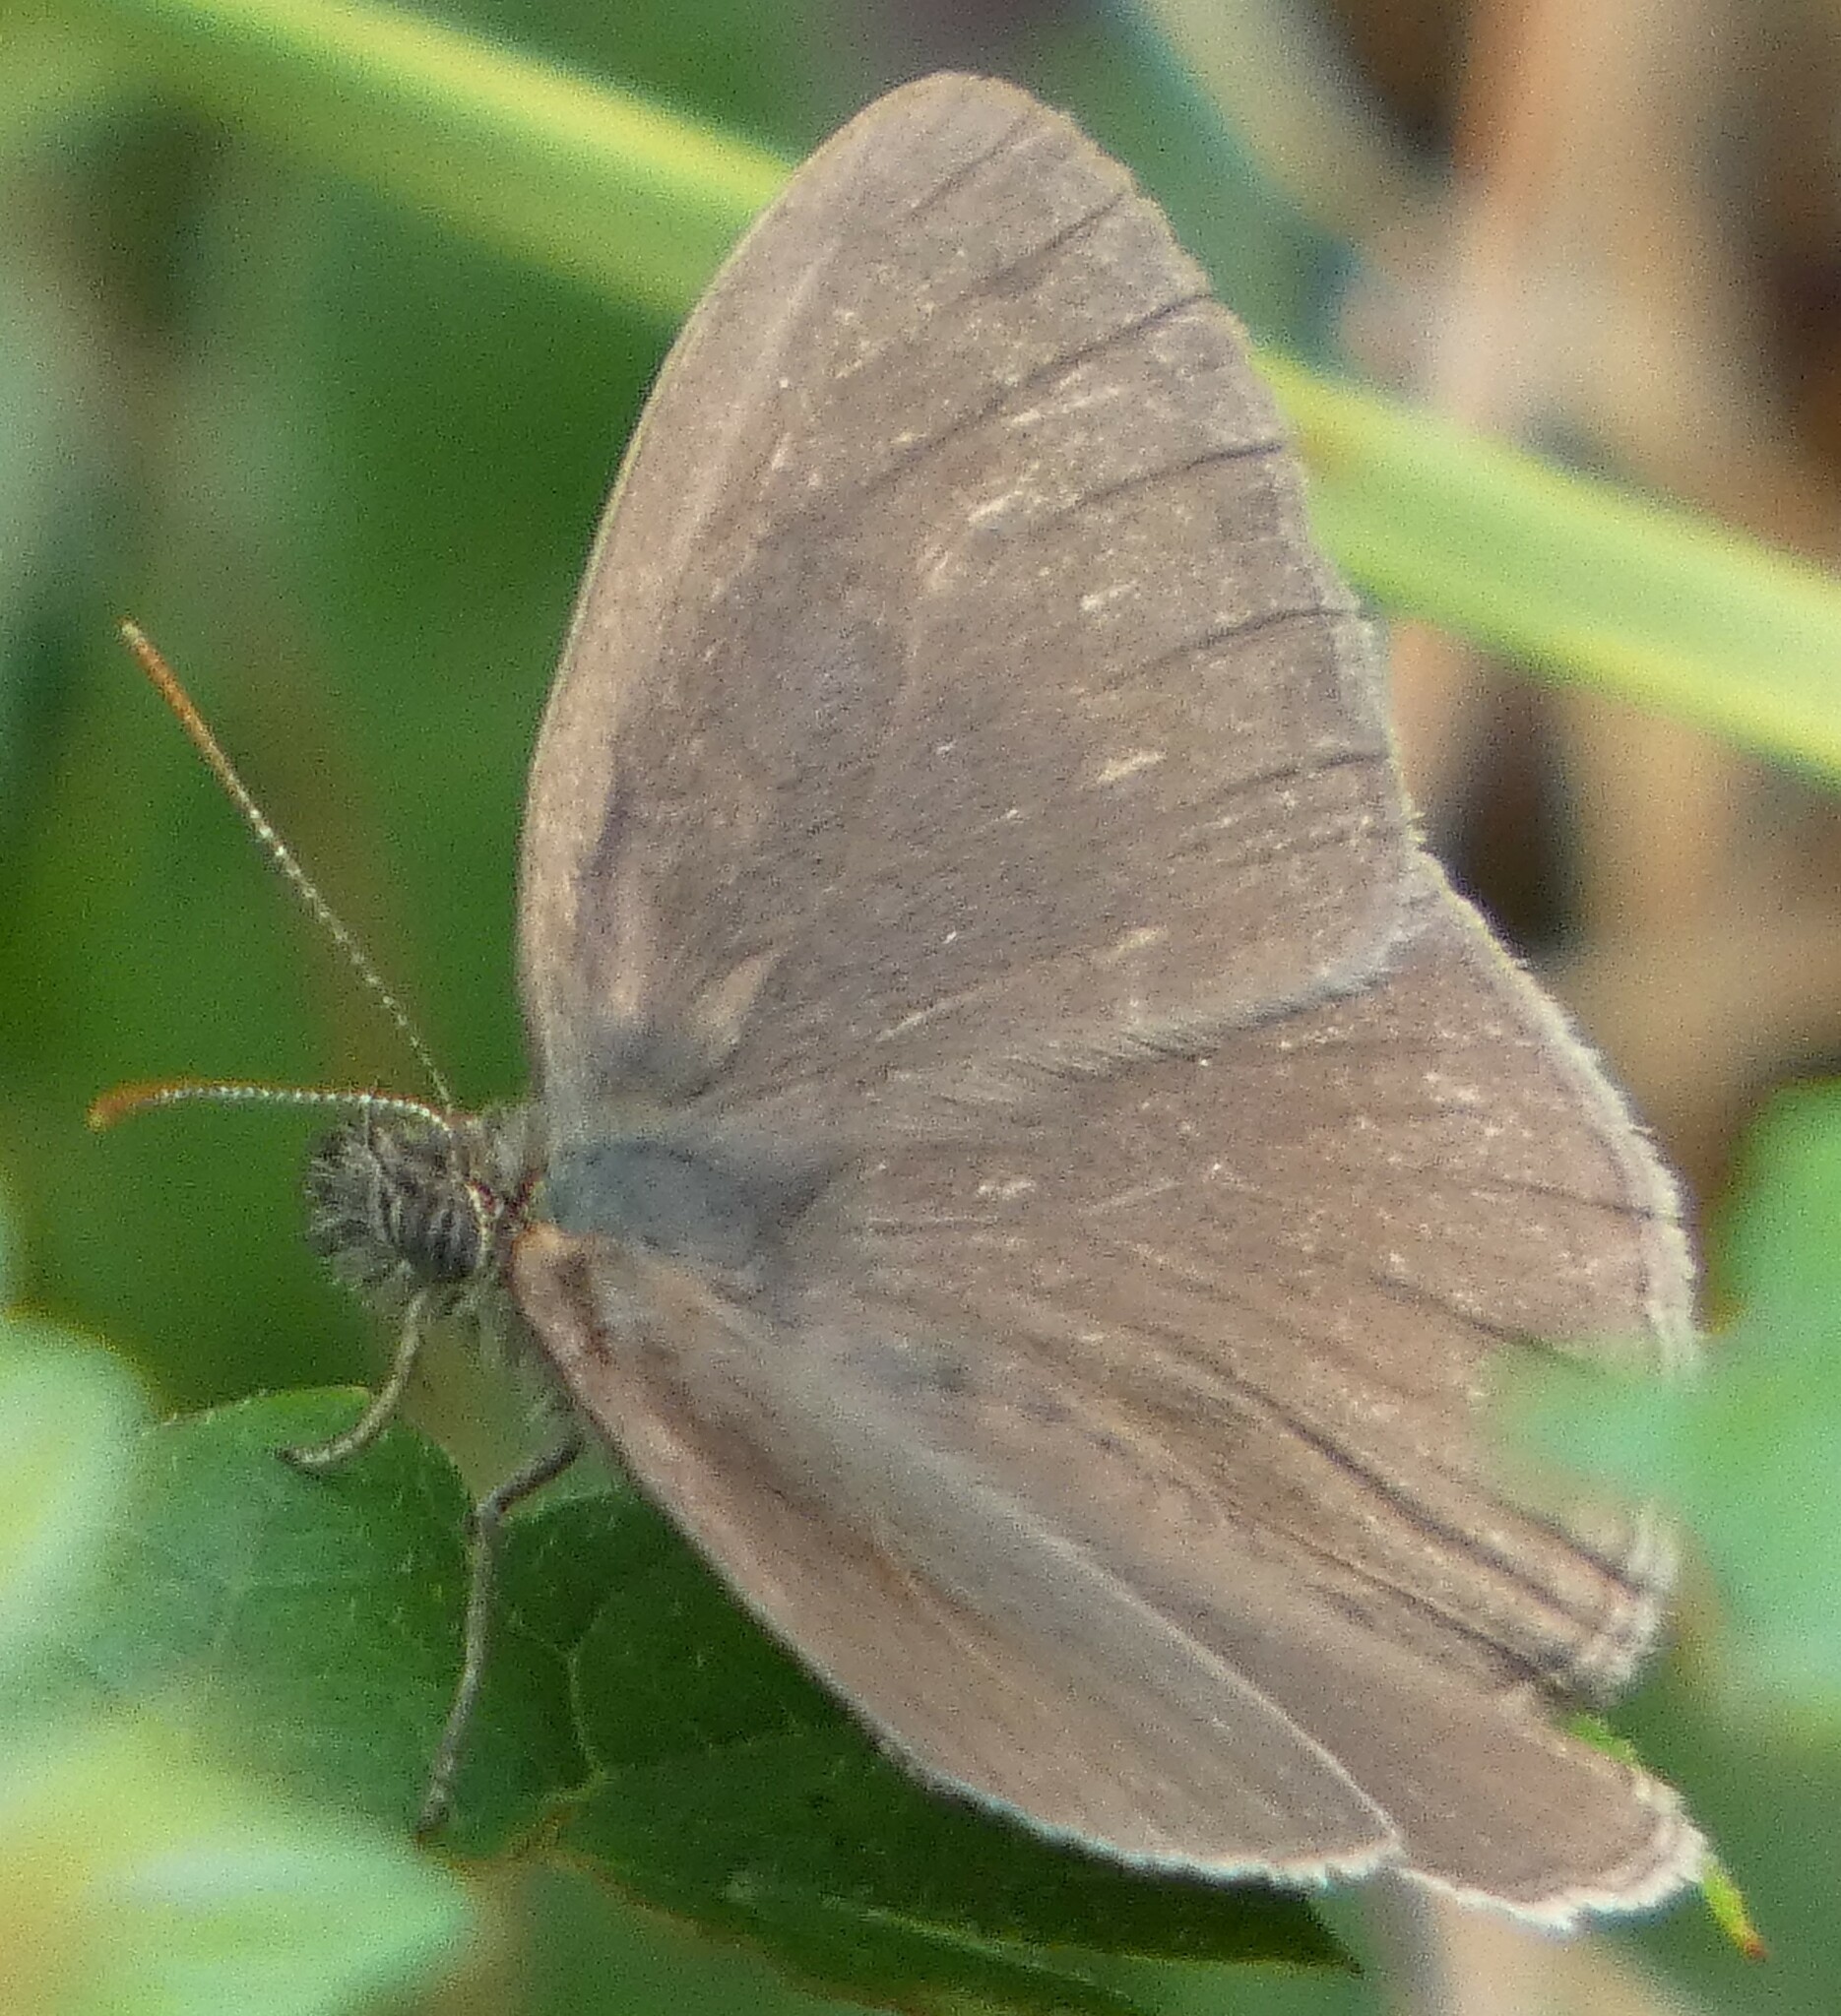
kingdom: Animalia
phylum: Arthropoda
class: Insecta
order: Lepidoptera
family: Nymphalidae
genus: Hermeuptychia
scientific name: Hermeuptychia hermes
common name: Hermes satyr
